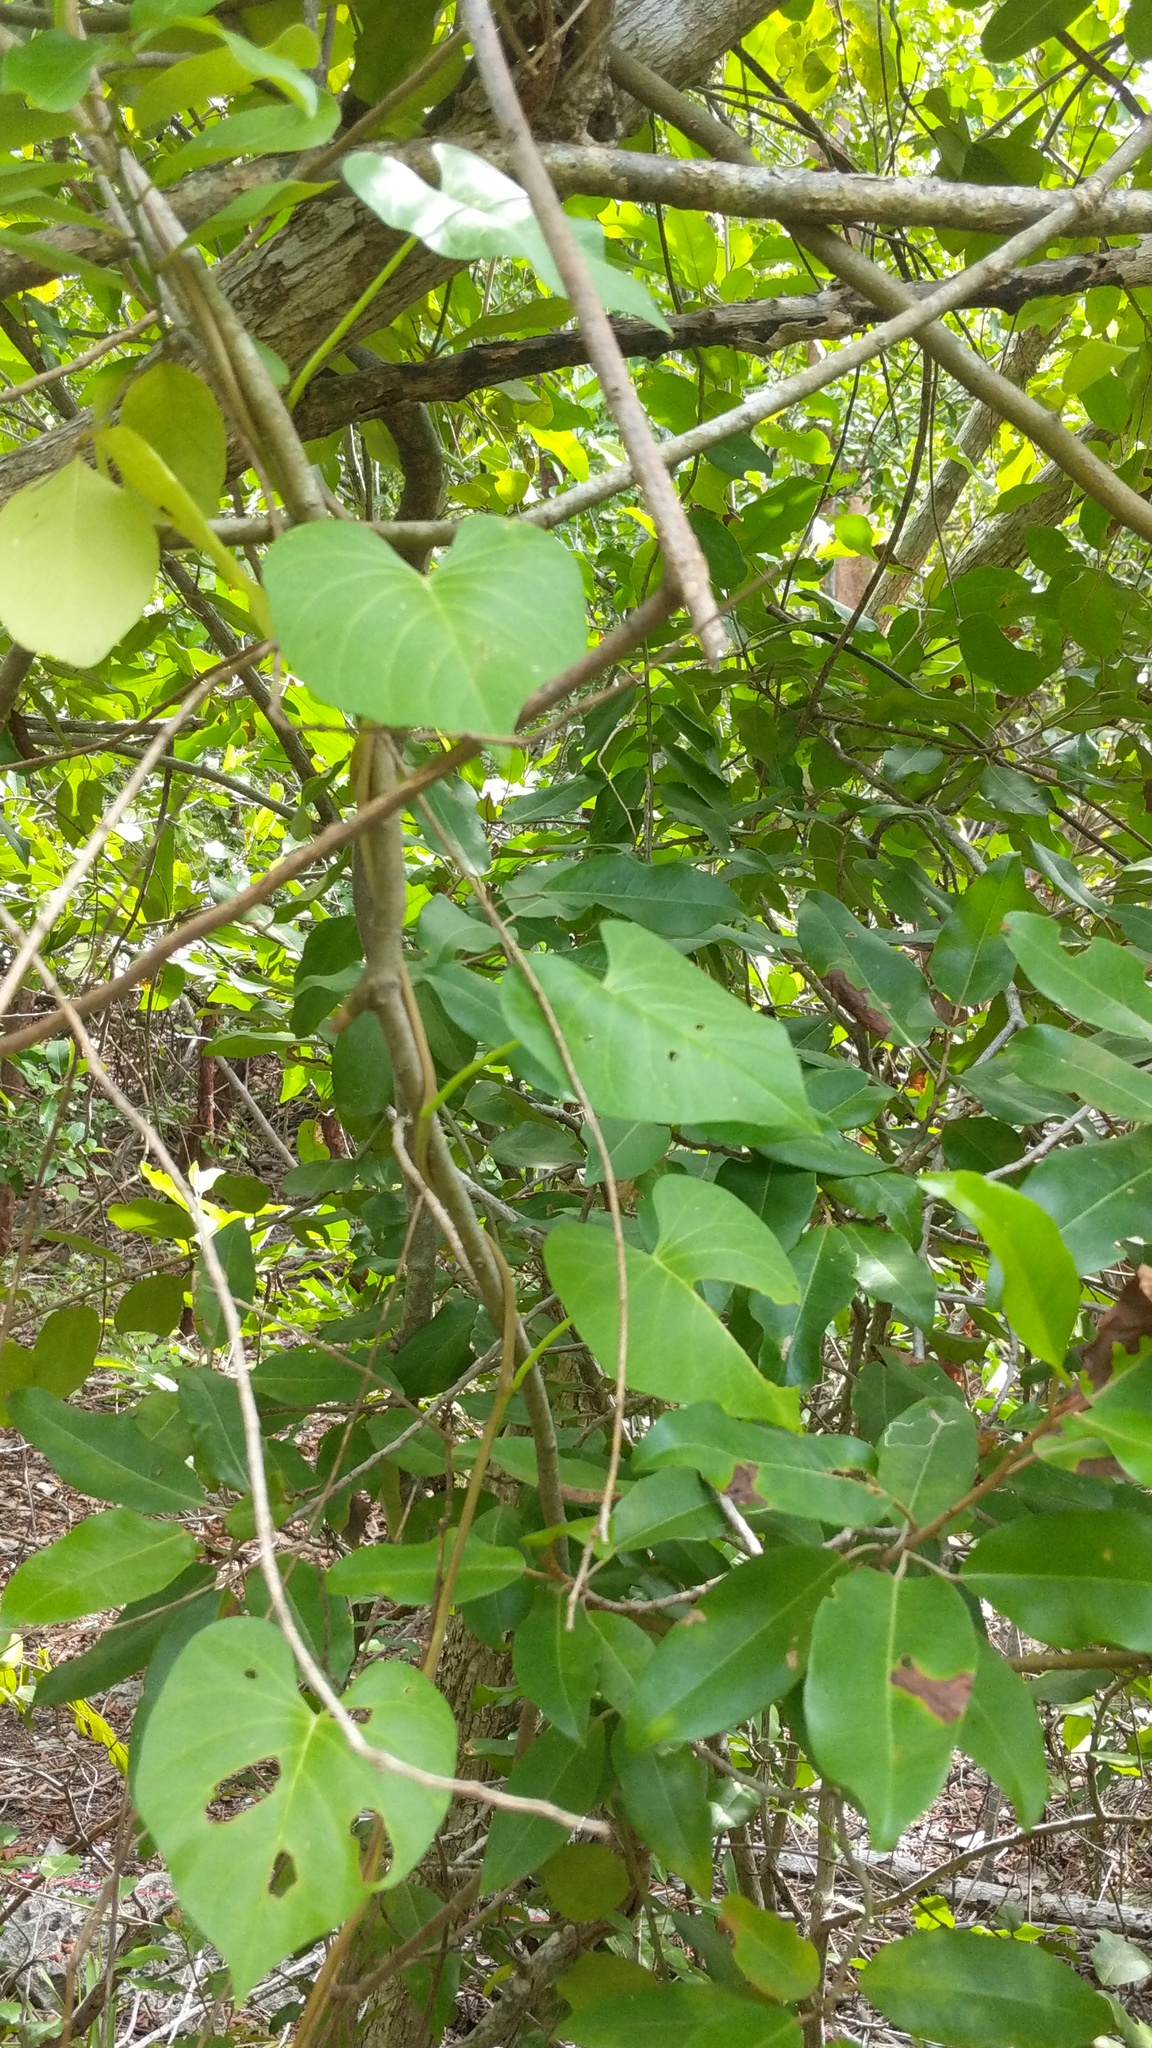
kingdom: Plantae
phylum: Tracheophyta
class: Magnoliopsida
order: Solanales
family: Convolvulaceae
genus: Ipomoea
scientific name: Ipomoea violacea
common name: Beach moonflower
